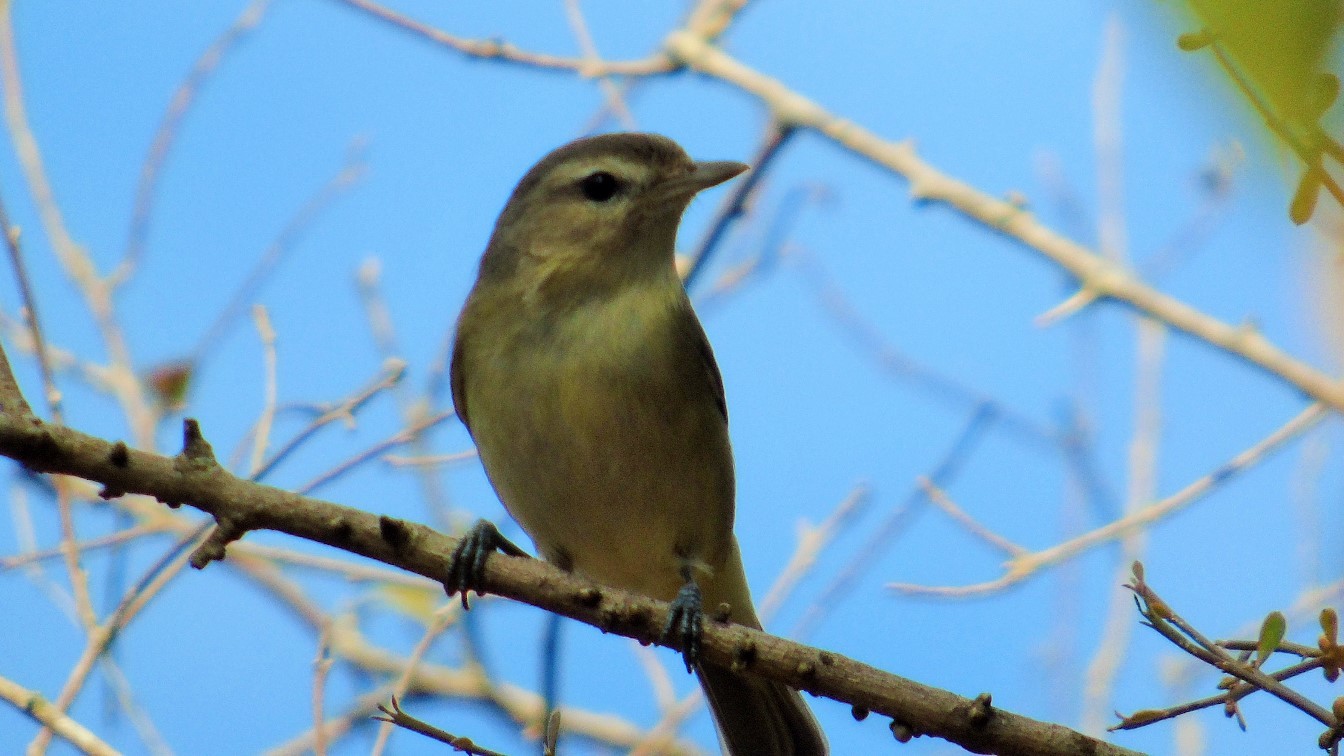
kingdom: Animalia
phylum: Chordata
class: Aves
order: Passeriformes
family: Vireonidae
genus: Vireo
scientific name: Vireo gilvus
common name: Warbling vireo
